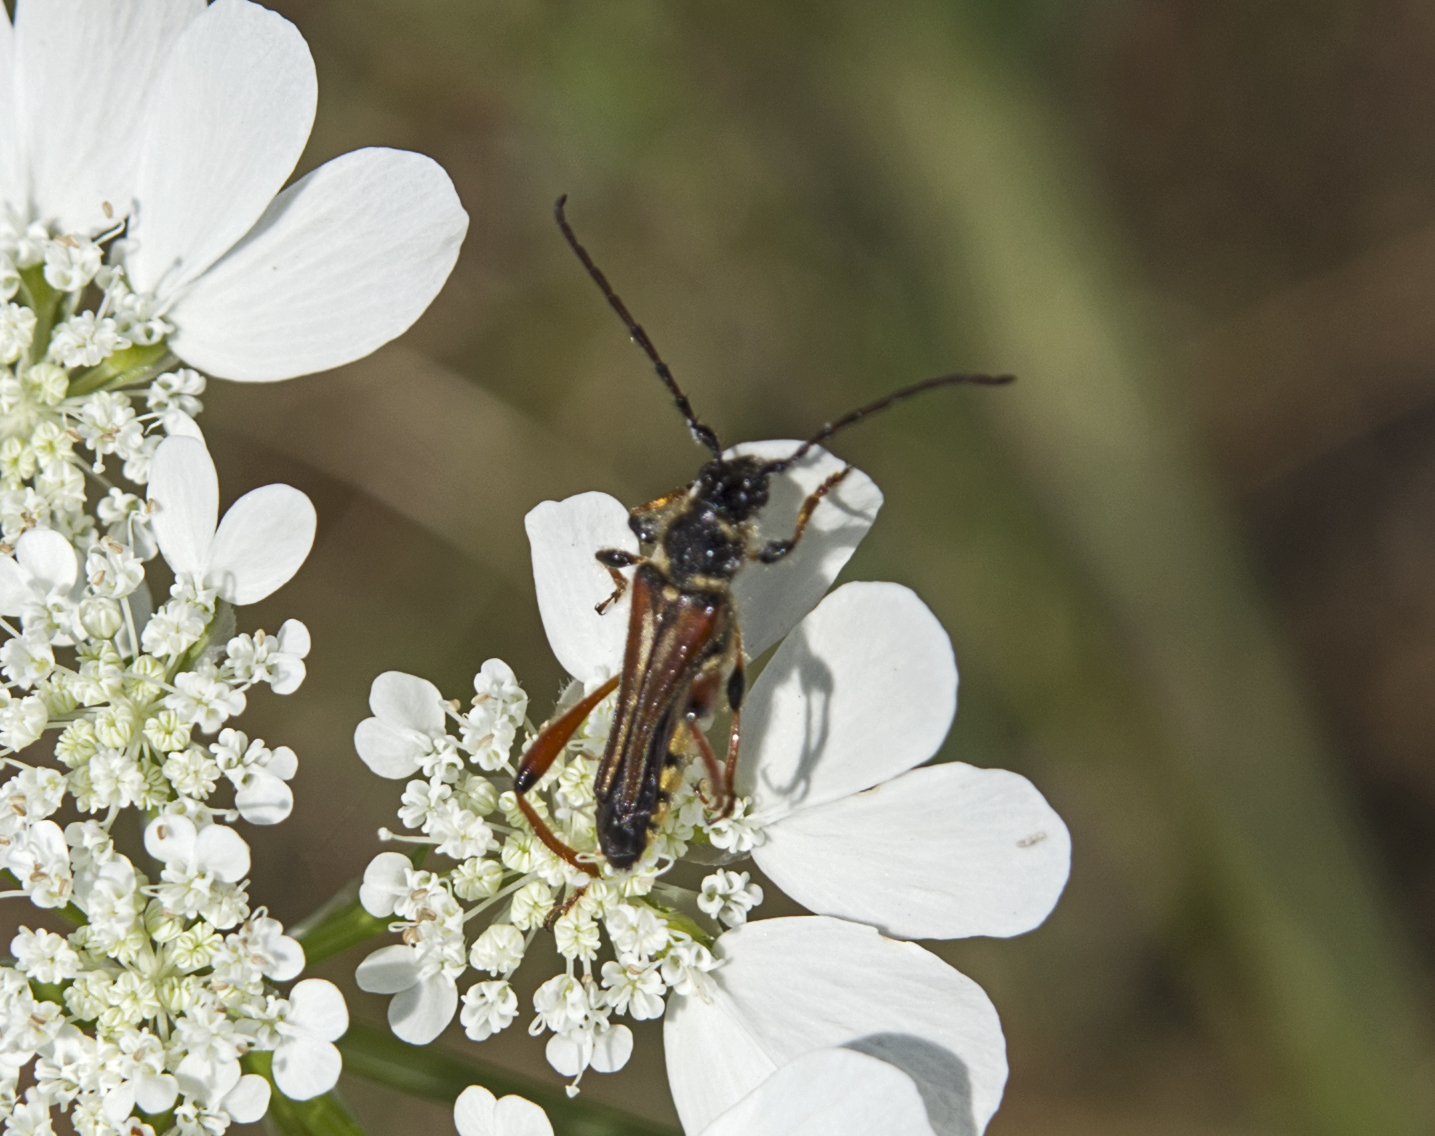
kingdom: Animalia
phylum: Arthropoda
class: Insecta
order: Coleoptera
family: Cerambycidae
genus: Stenopterus
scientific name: Stenopterus rufus
